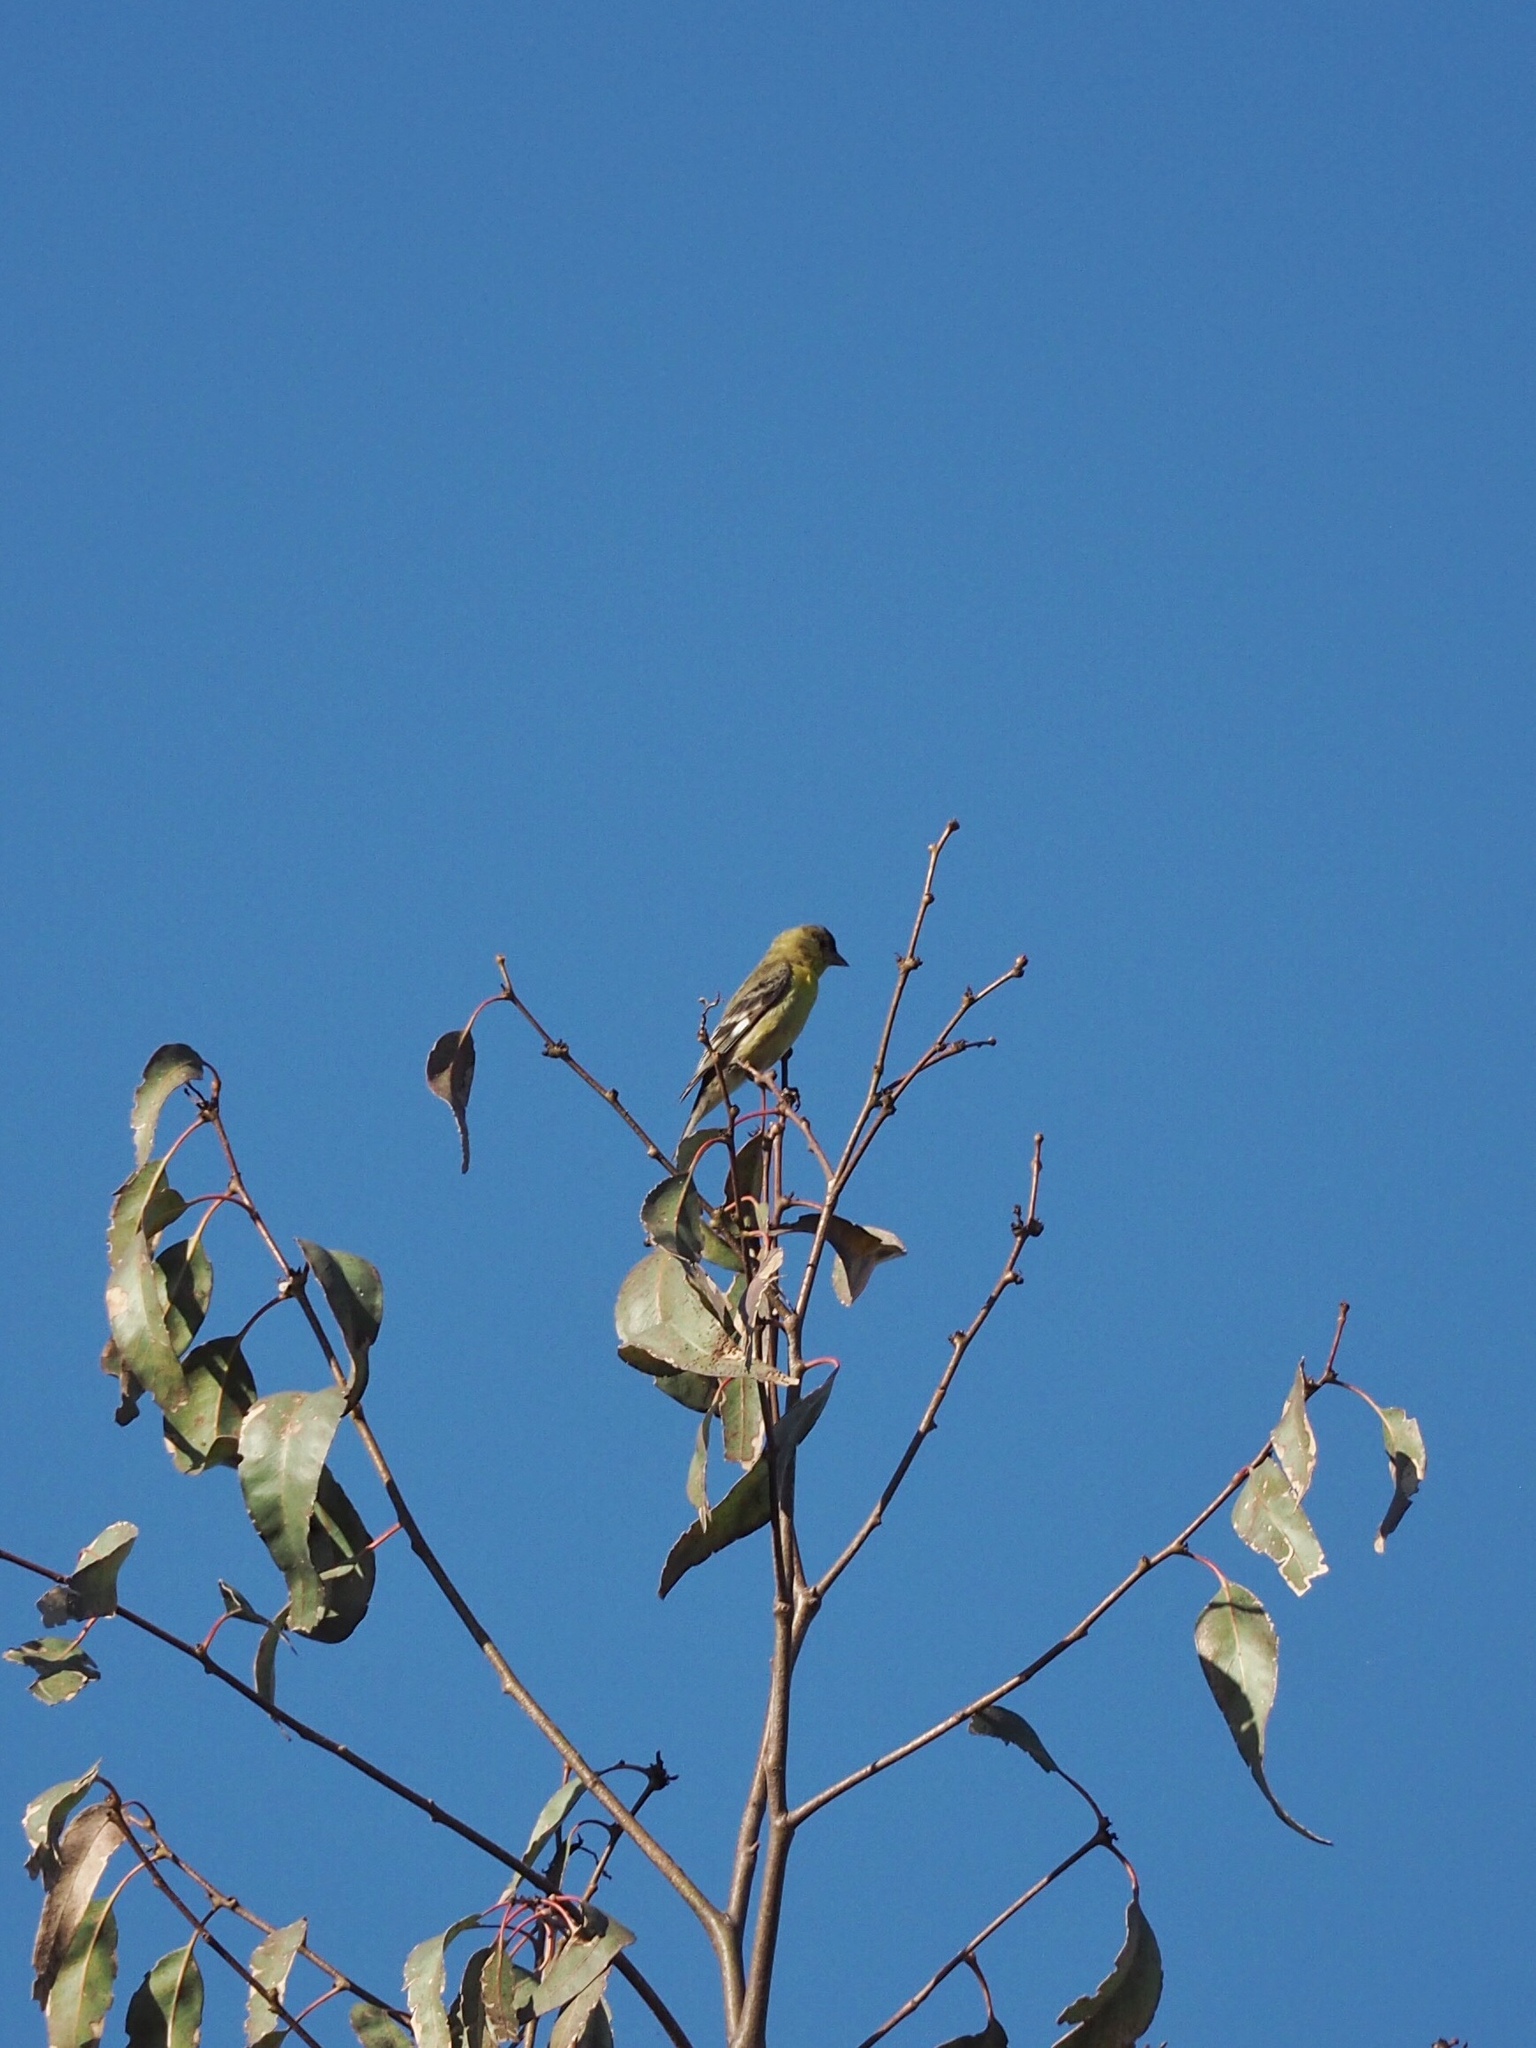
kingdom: Animalia
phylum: Chordata
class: Aves
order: Passeriformes
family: Fringillidae
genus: Spinus
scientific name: Spinus psaltria
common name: Lesser goldfinch
